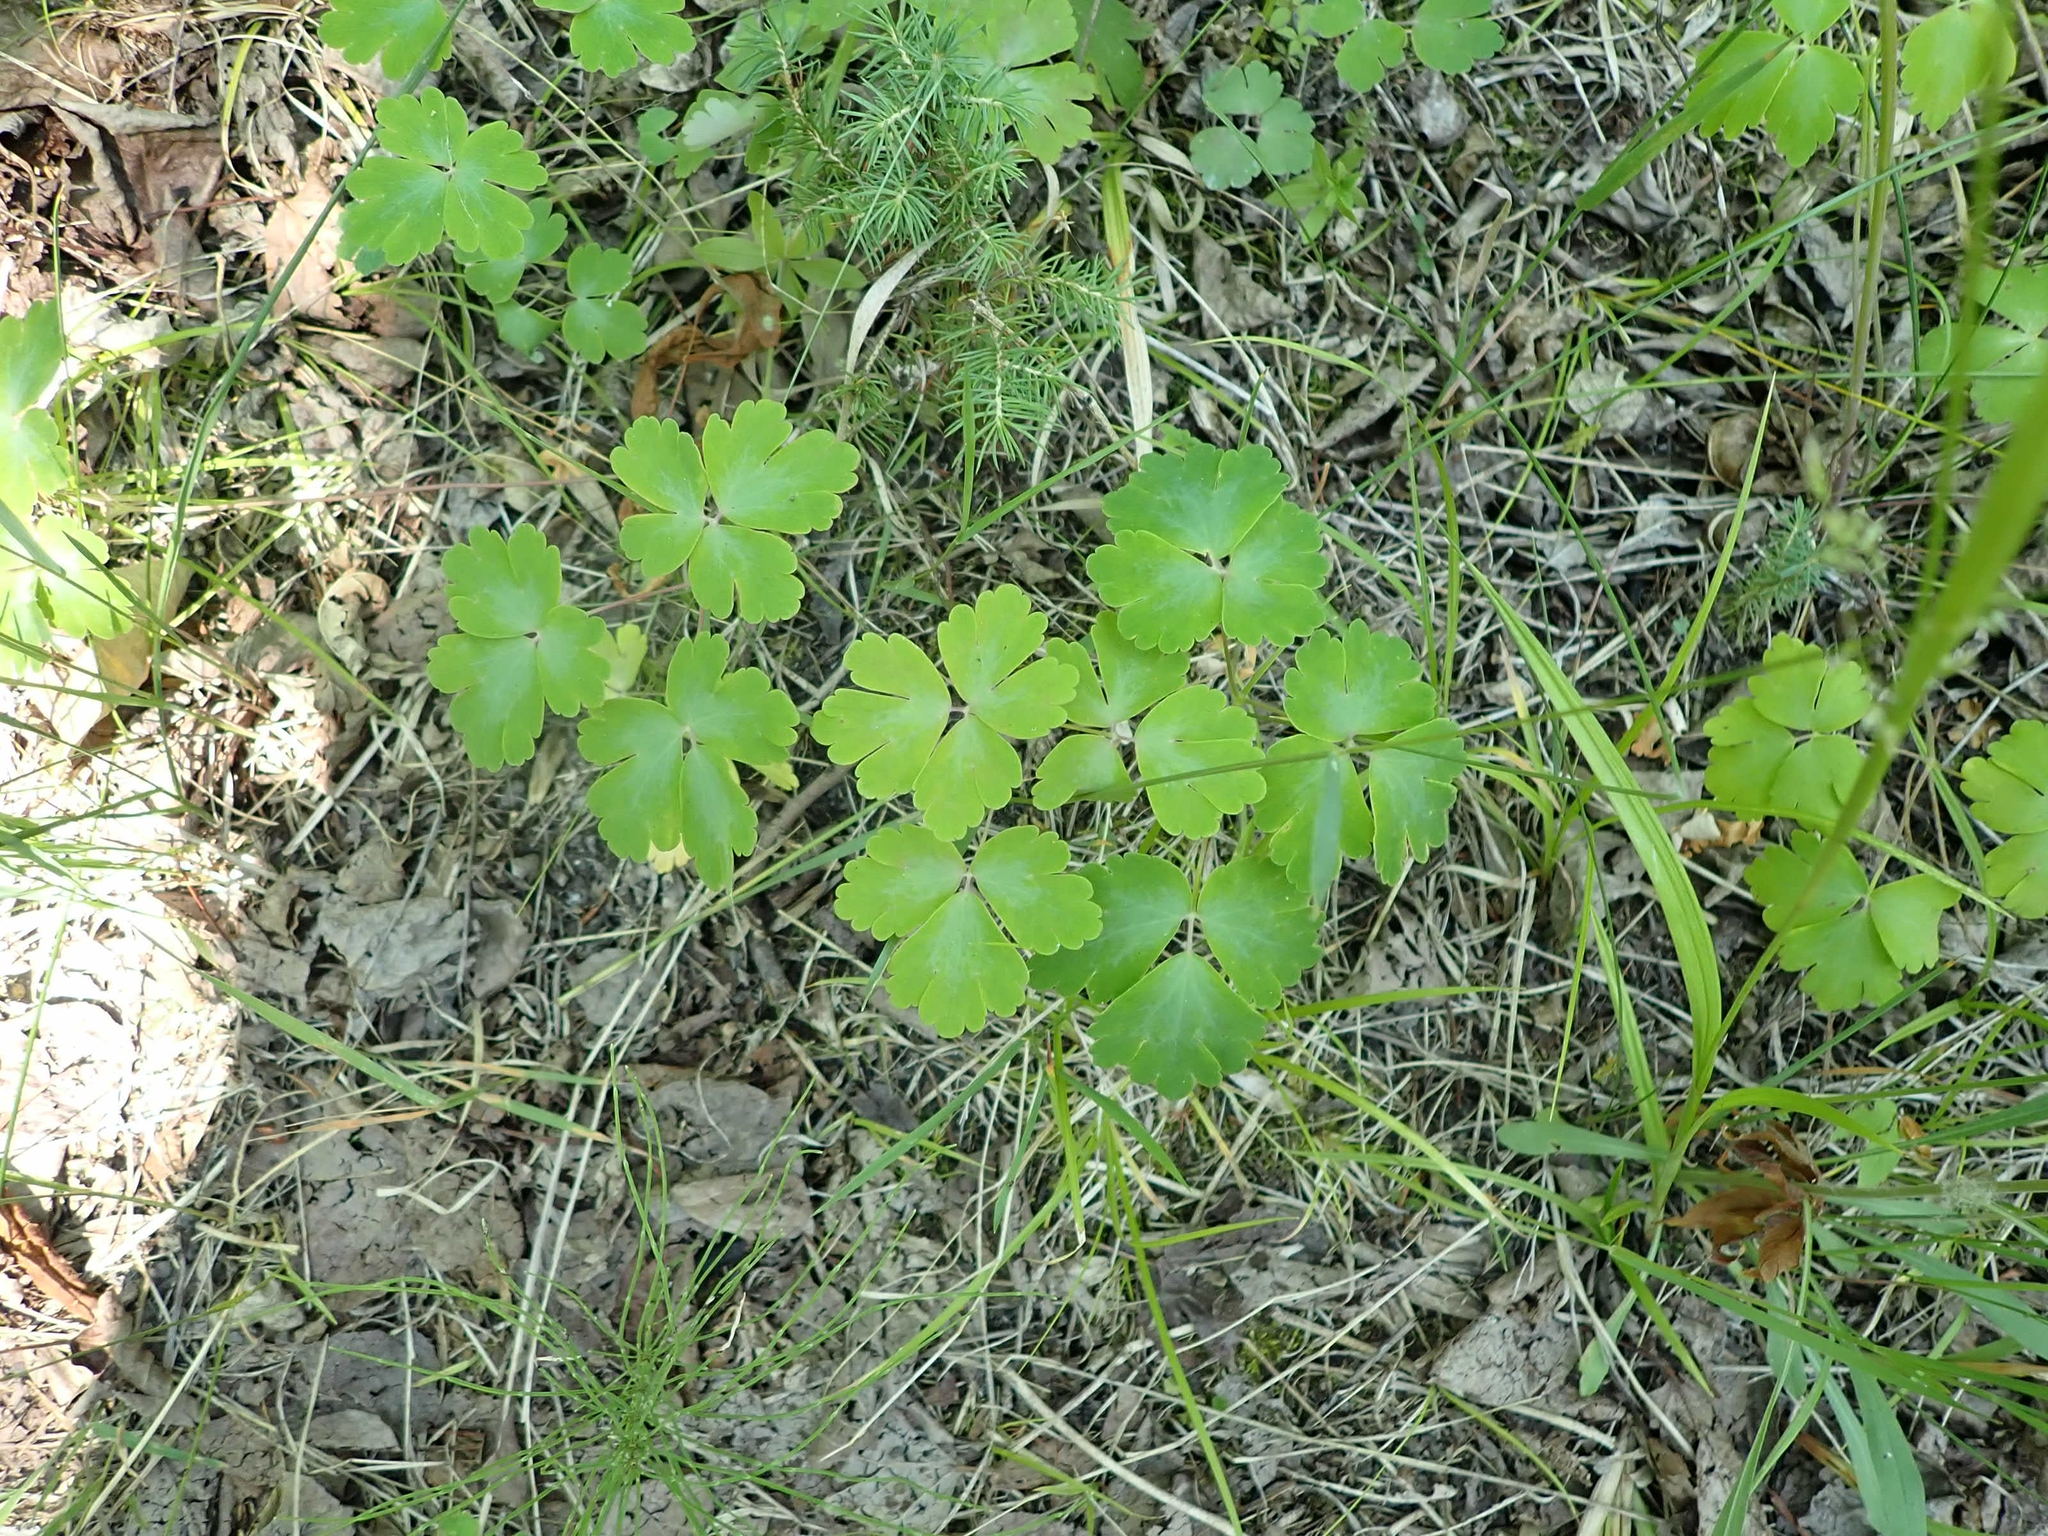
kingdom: Plantae
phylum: Tracheophyta
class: Magnoliopsida
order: Ranunculales
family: Ranunculaceae
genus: Aquilegia
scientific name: Aquilegia canadensis
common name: American columbine
